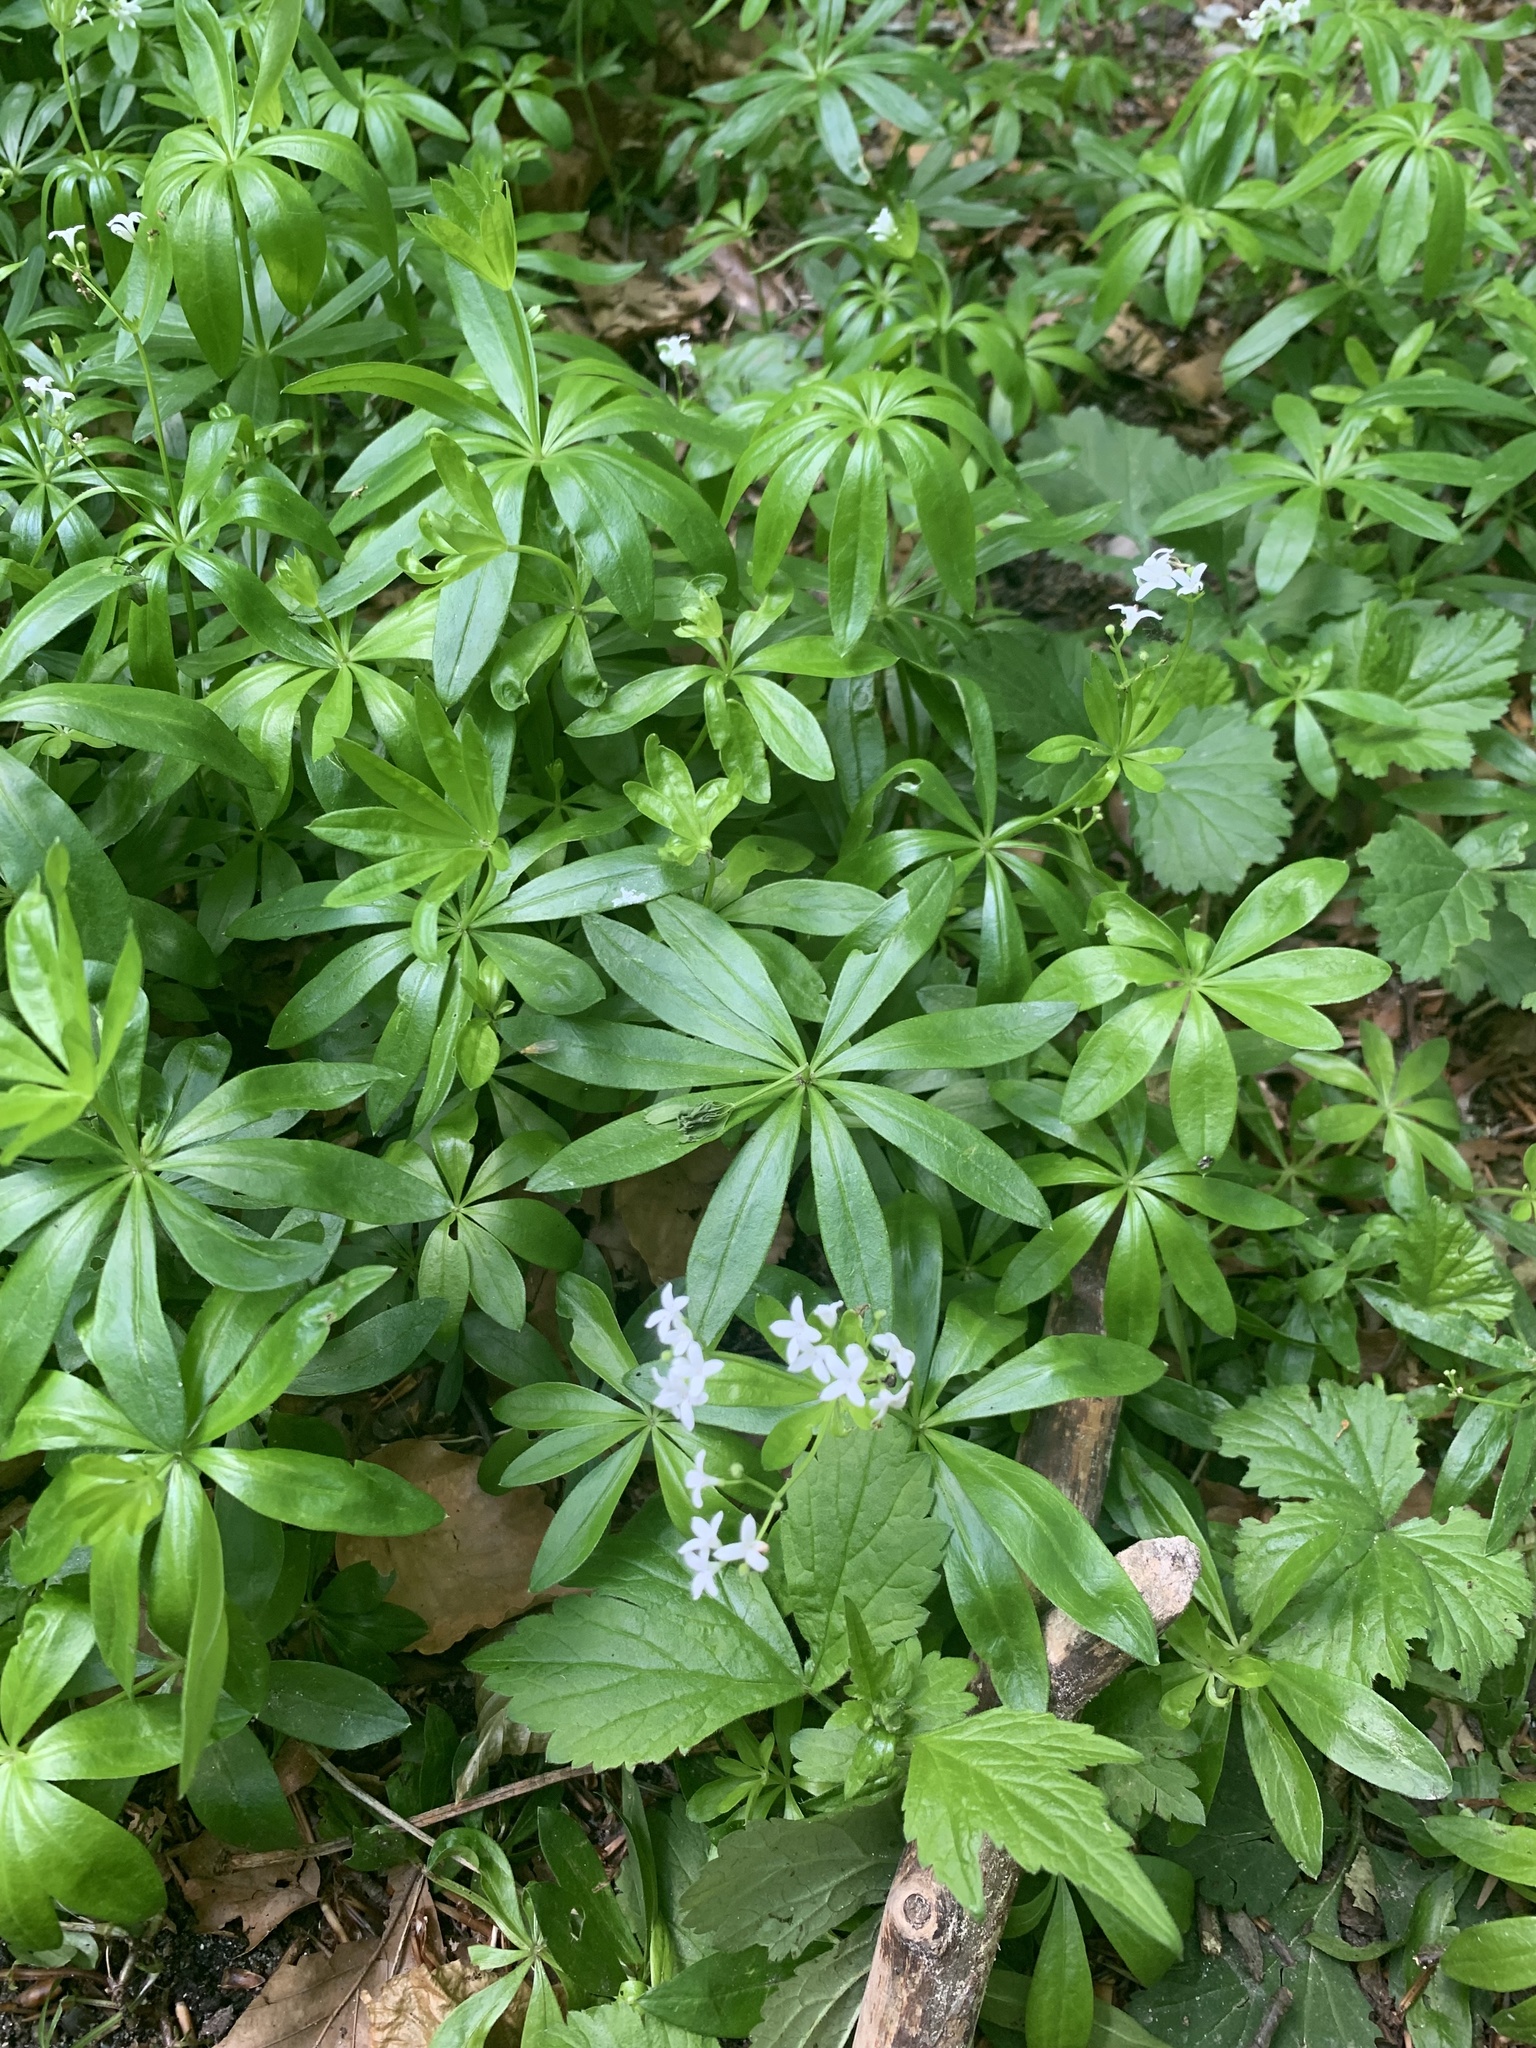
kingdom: Plantae
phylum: Tracheophyta
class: Magnoliopsida
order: Gentianales
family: Rubiaceae
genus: Galium
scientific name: Galium odoratum
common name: Sweet woodruff
